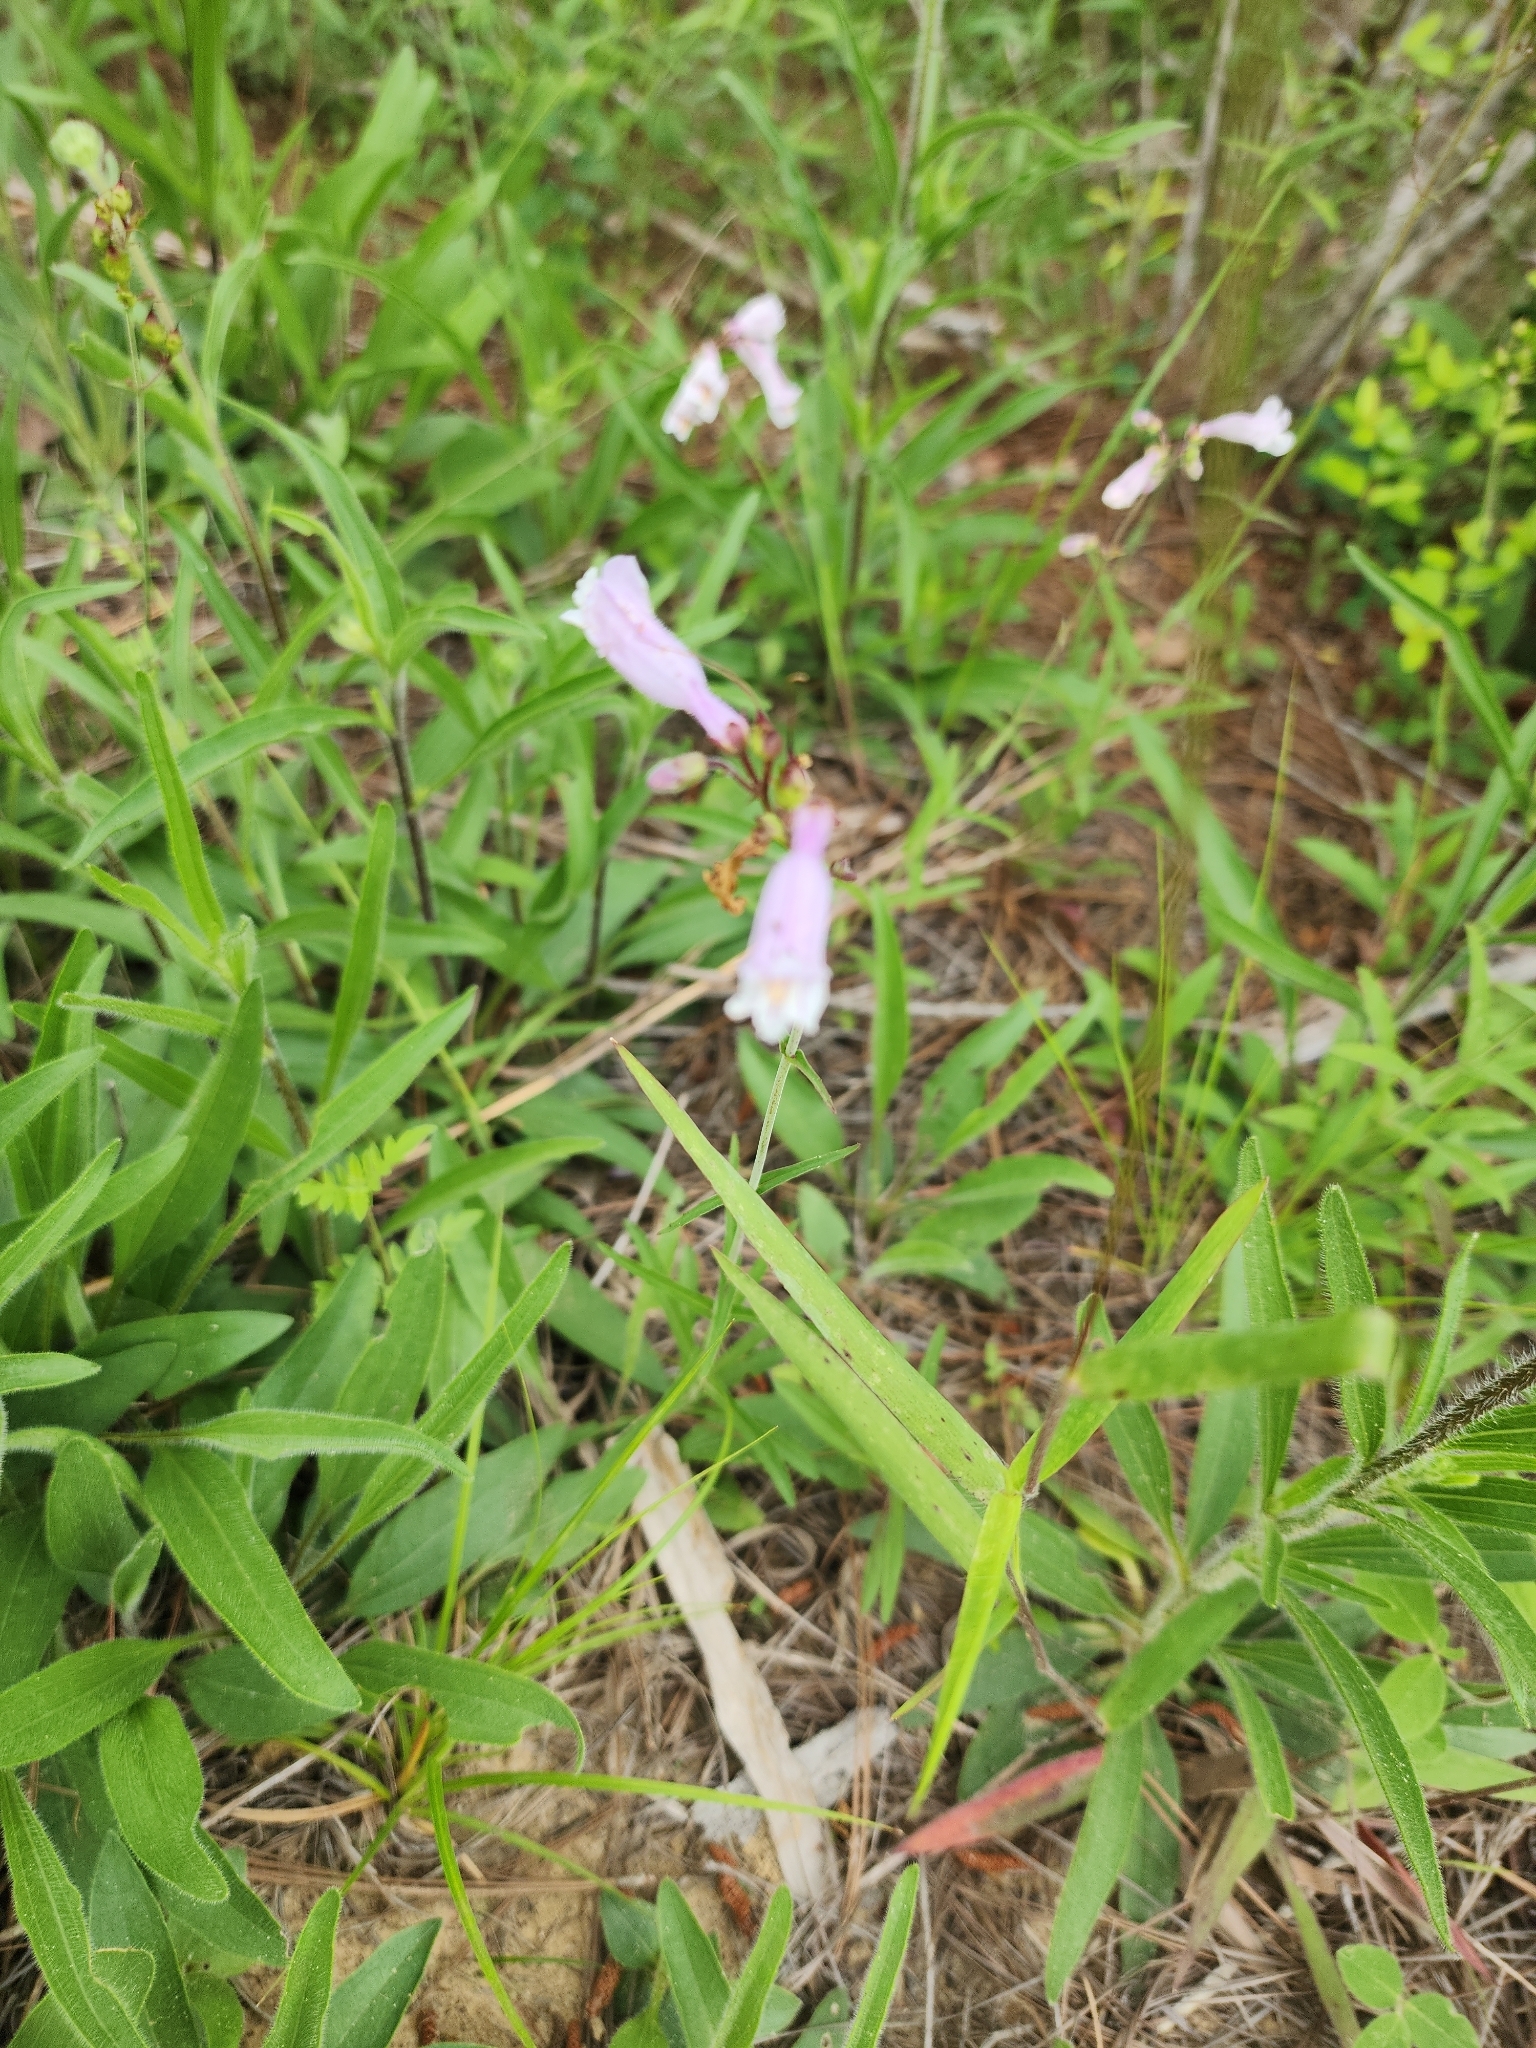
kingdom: Plantae
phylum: Tracheophyta
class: Magnoliopsida
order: Lamiales
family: Plantaginaceae
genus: Penstemon
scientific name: Penstemon laxiflorus
